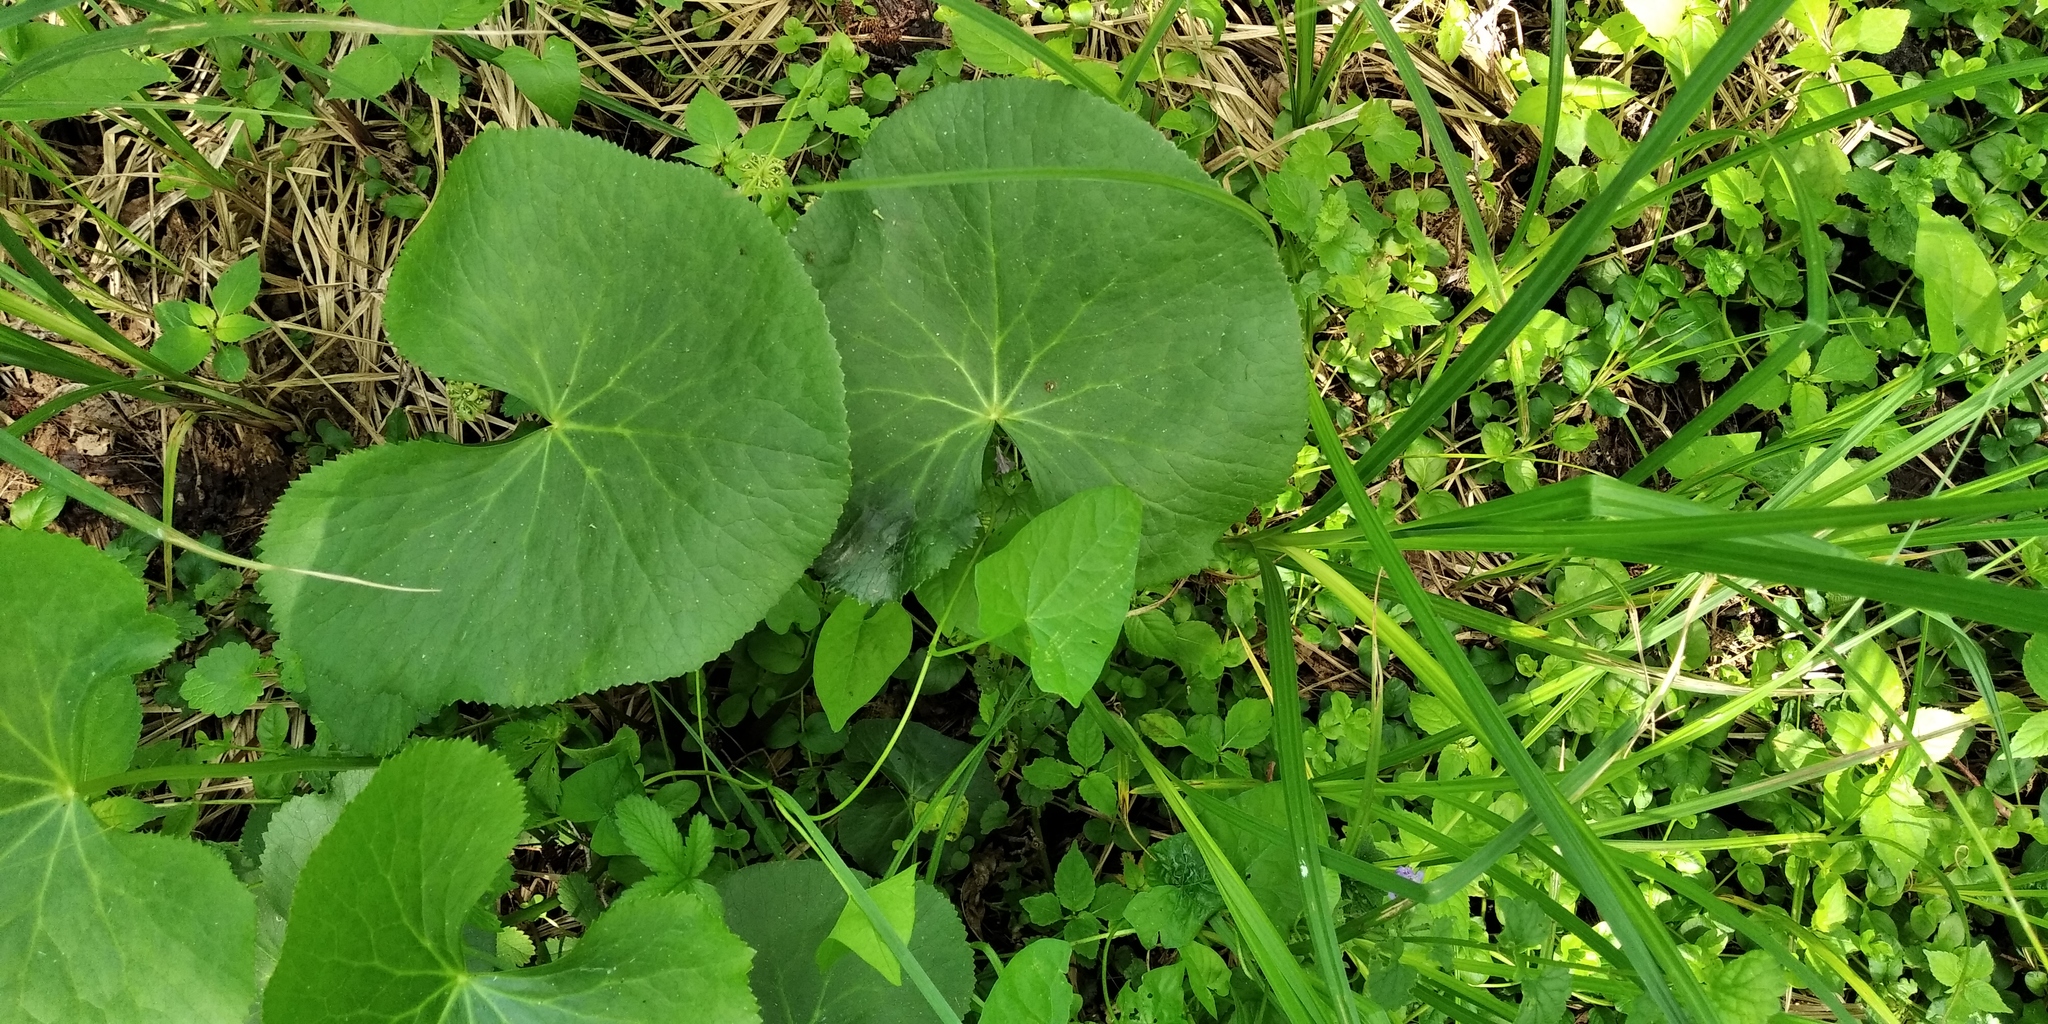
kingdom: Plantae
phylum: Tracheophyta
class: Magnoliopsida
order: Ranunculales
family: Ranunculaceae
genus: Caltha
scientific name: Caltha palustris
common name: Marsh marigold
